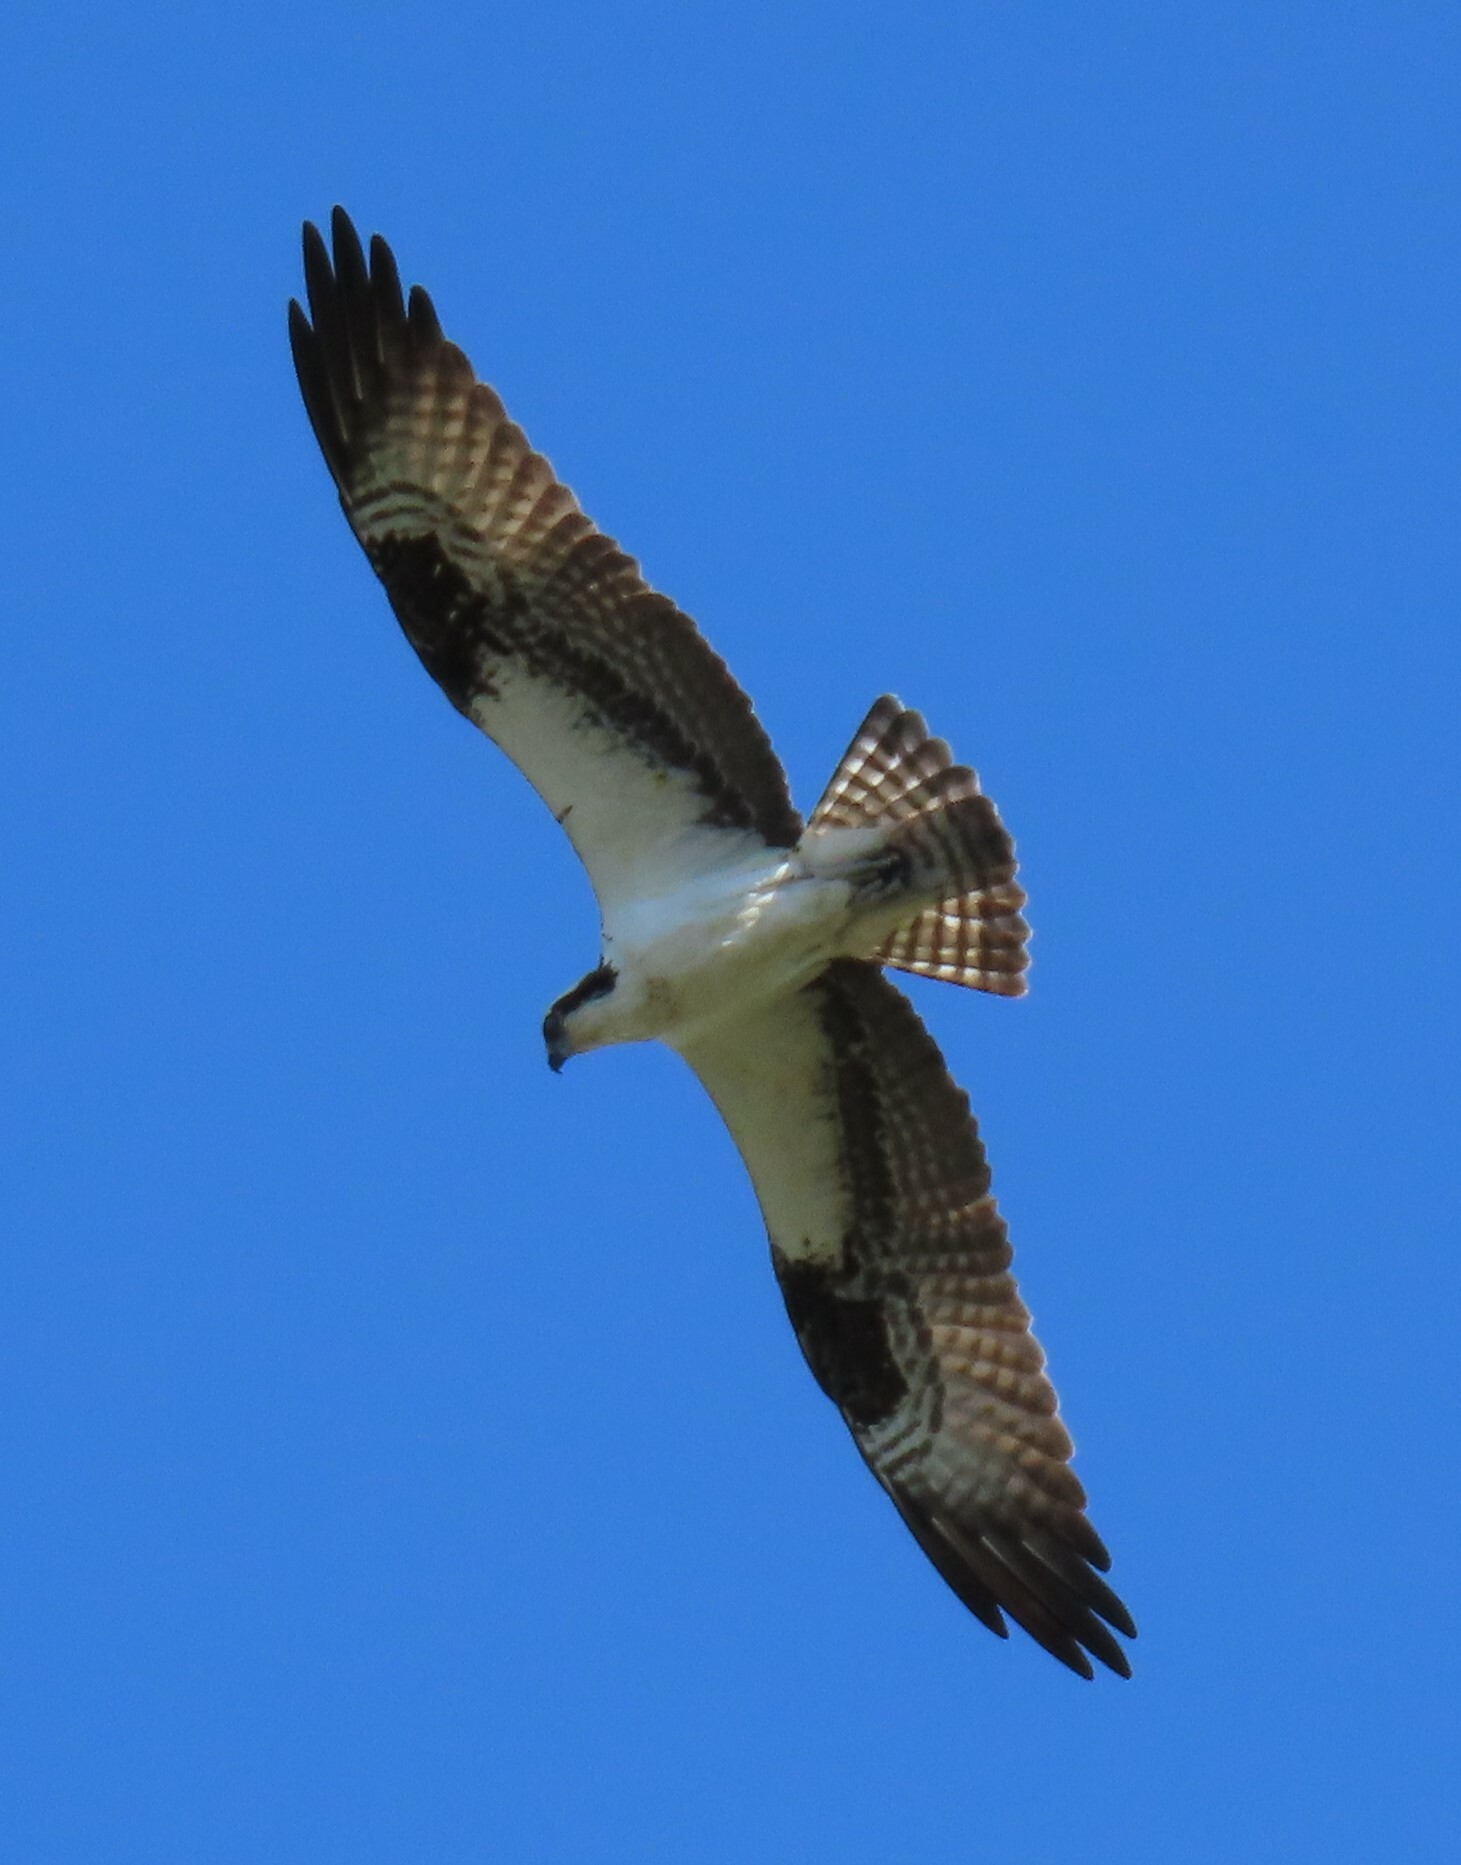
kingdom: Animalia
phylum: Chordata
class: Aves
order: Accipitriformes
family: Pandionidae
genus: Pandion
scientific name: Pandion haliaetus
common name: Osprey
